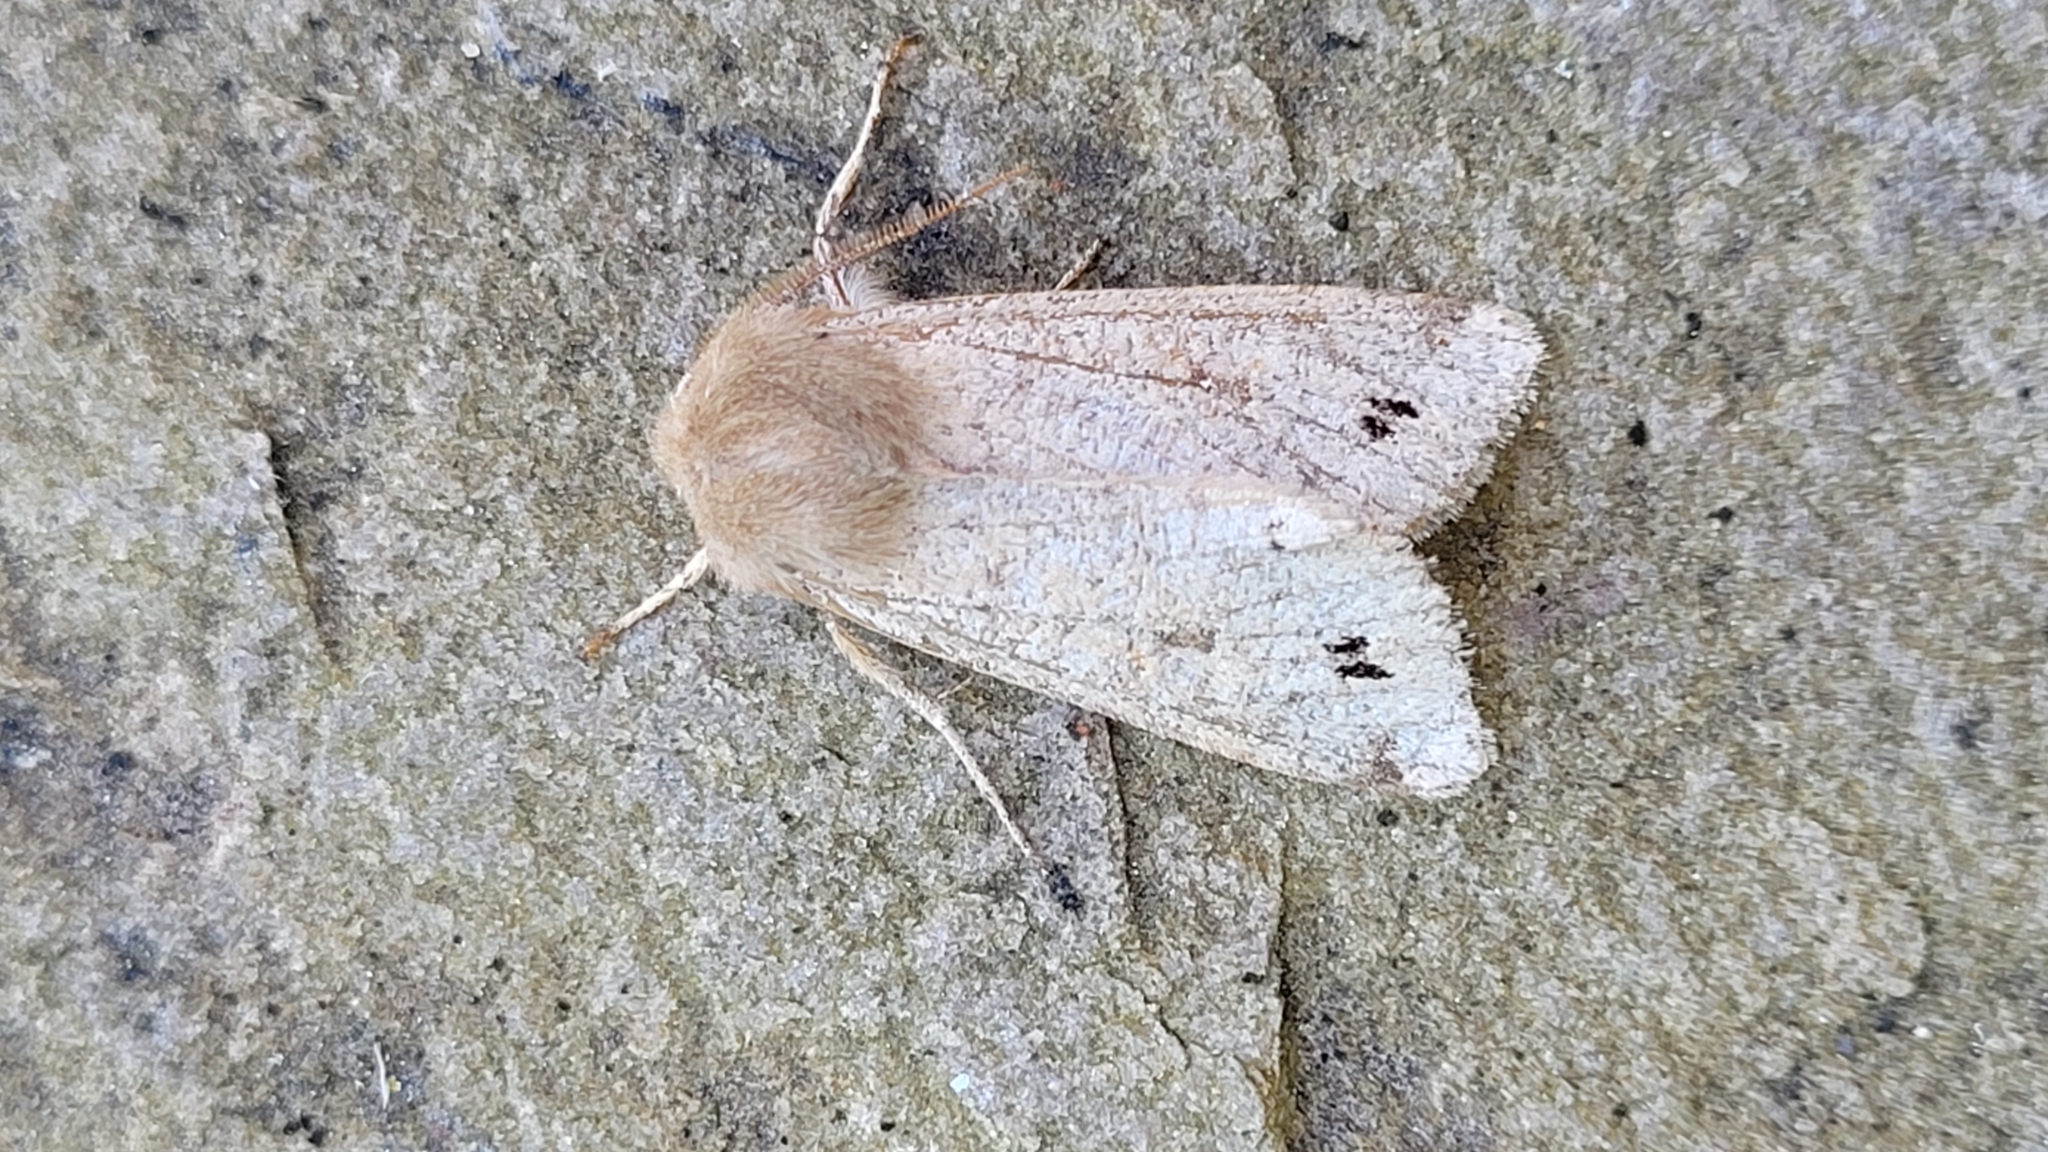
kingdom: Animalia
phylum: Arthropoda
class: Insecta
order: Lepidoptera
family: Noctuidae
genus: Anorthoa
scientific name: Anorthoa munda
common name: Twin-spotted quaker
